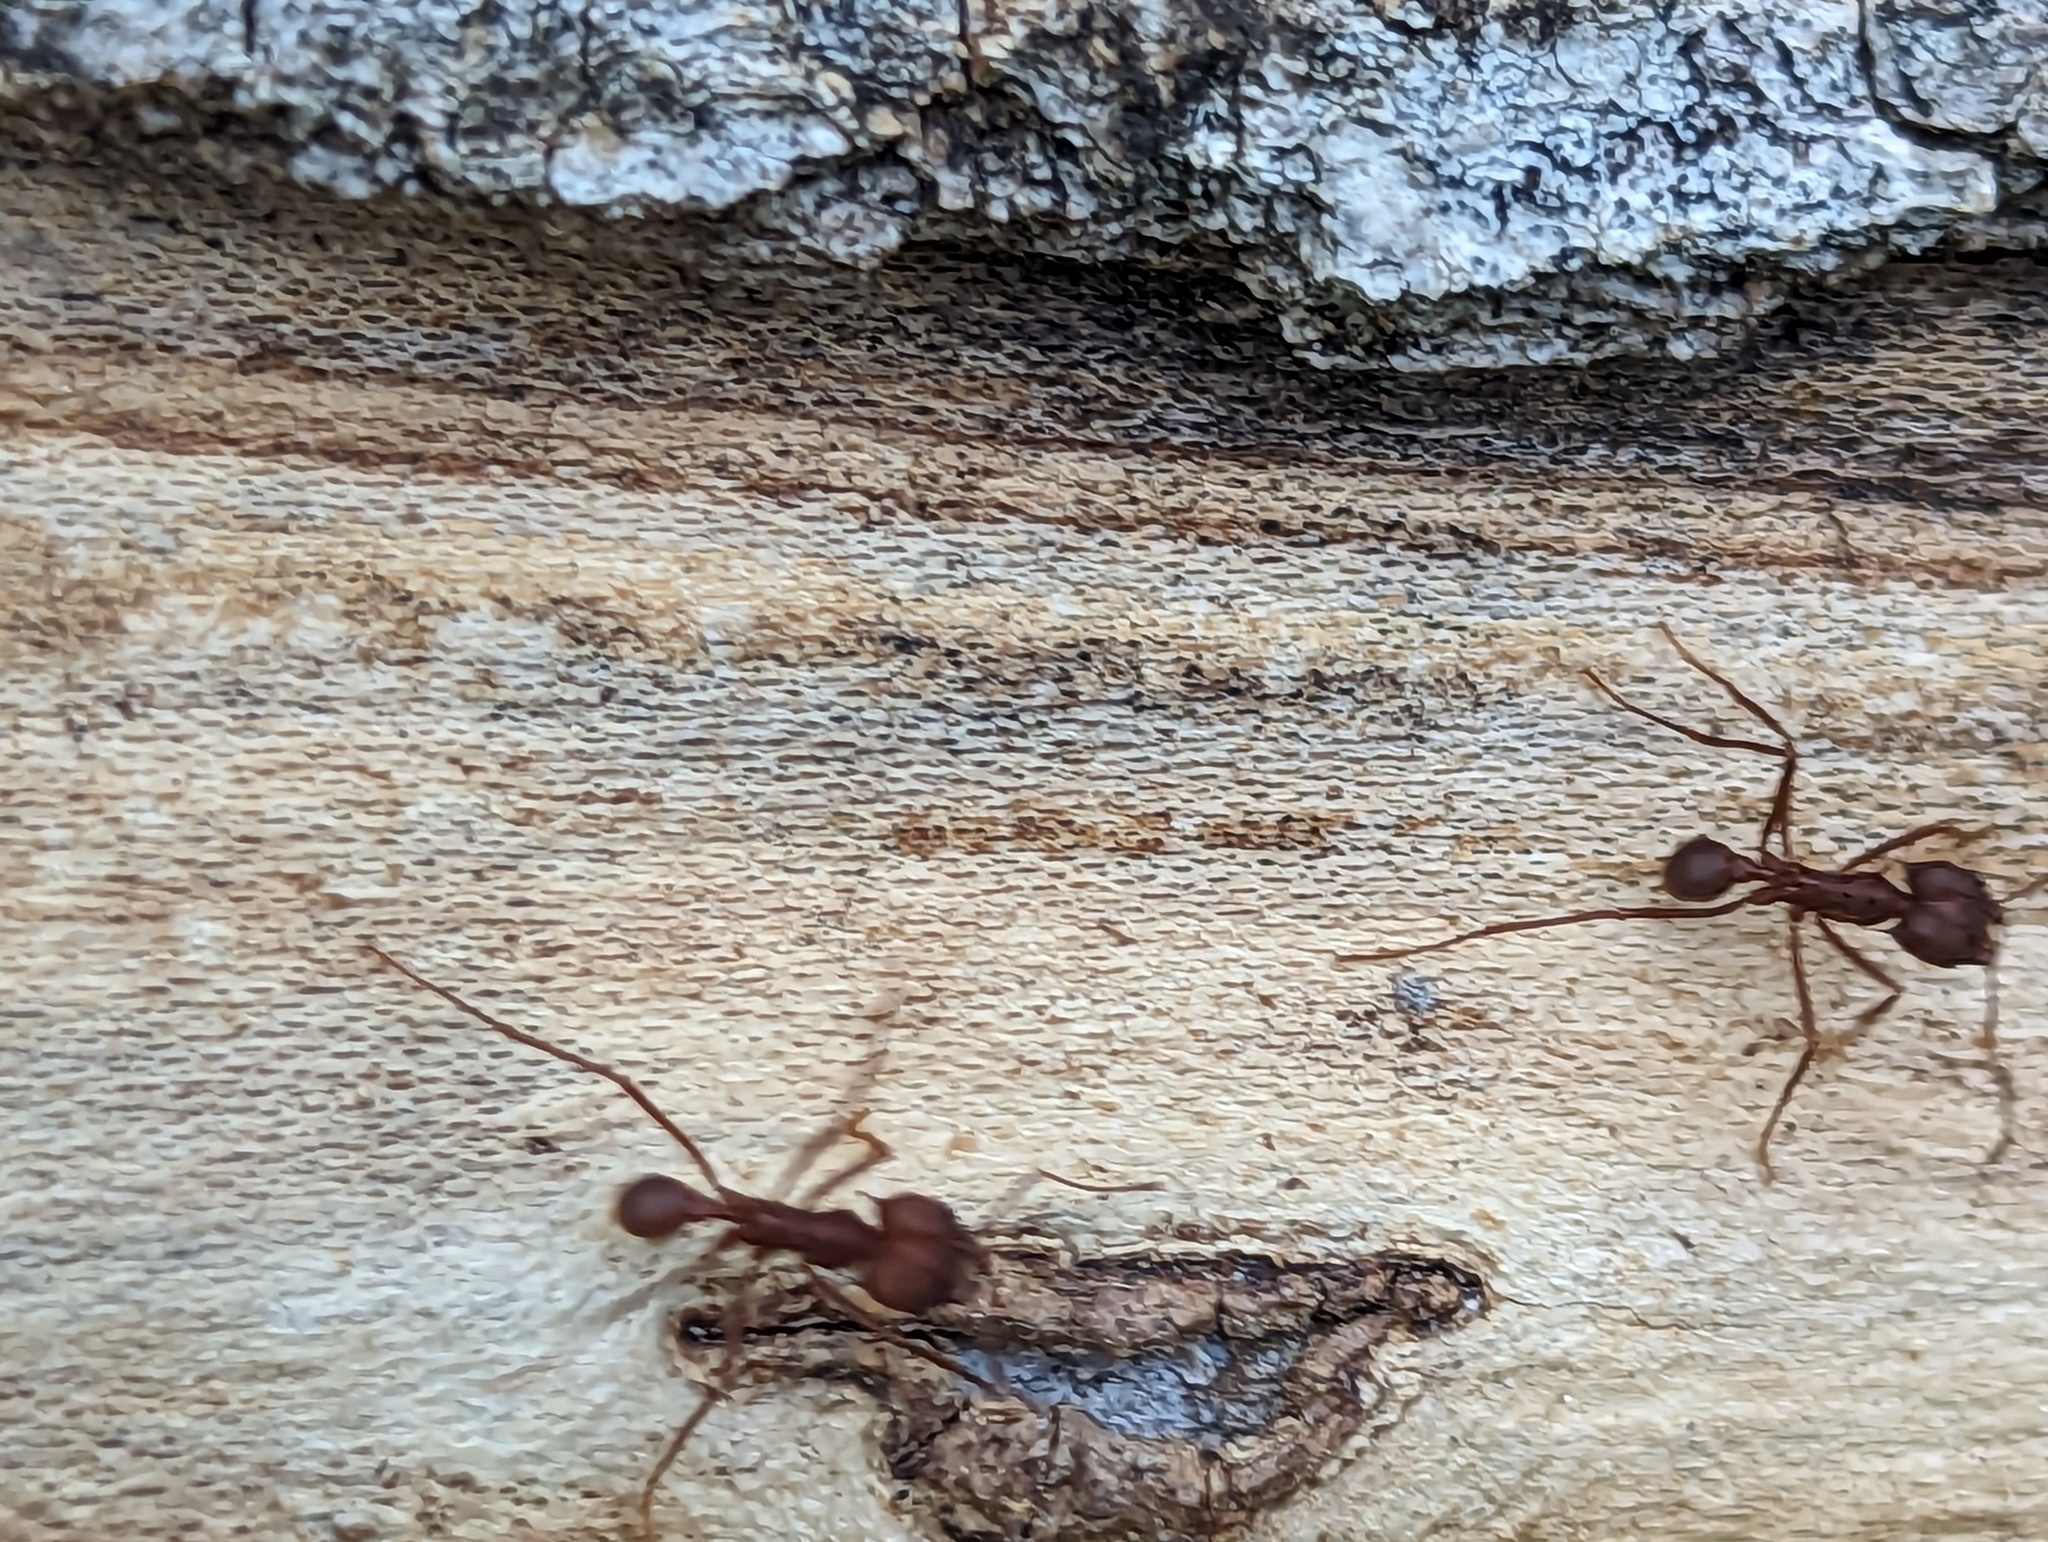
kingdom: Animalia
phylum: Arthropoda
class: Insecta
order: Hymenoptera
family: Formicidae
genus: Atta
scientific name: Atta texana
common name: Texas leafcutting ant
